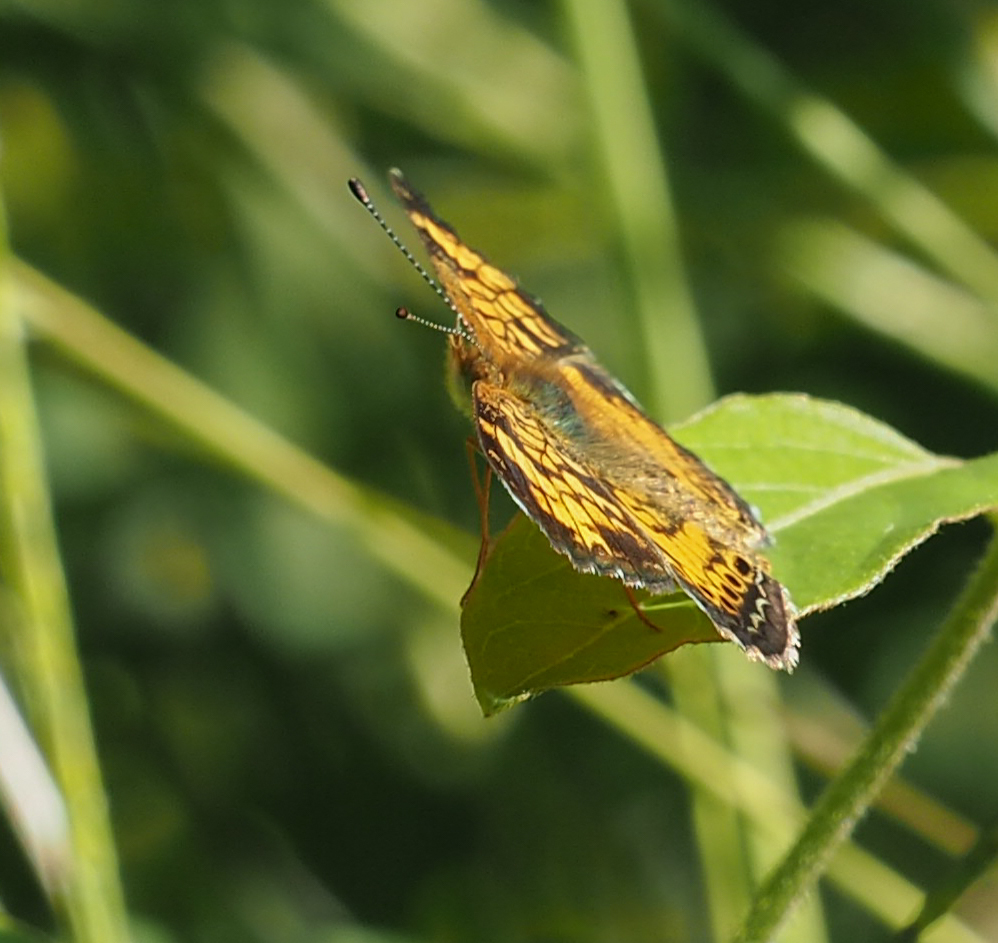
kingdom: Animalia
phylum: Arthropoda
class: Insecta
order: Lepidoptera
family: Nymphalidae
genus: Phyciodes
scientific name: Phyciodes tharos
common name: Pearl crescent
